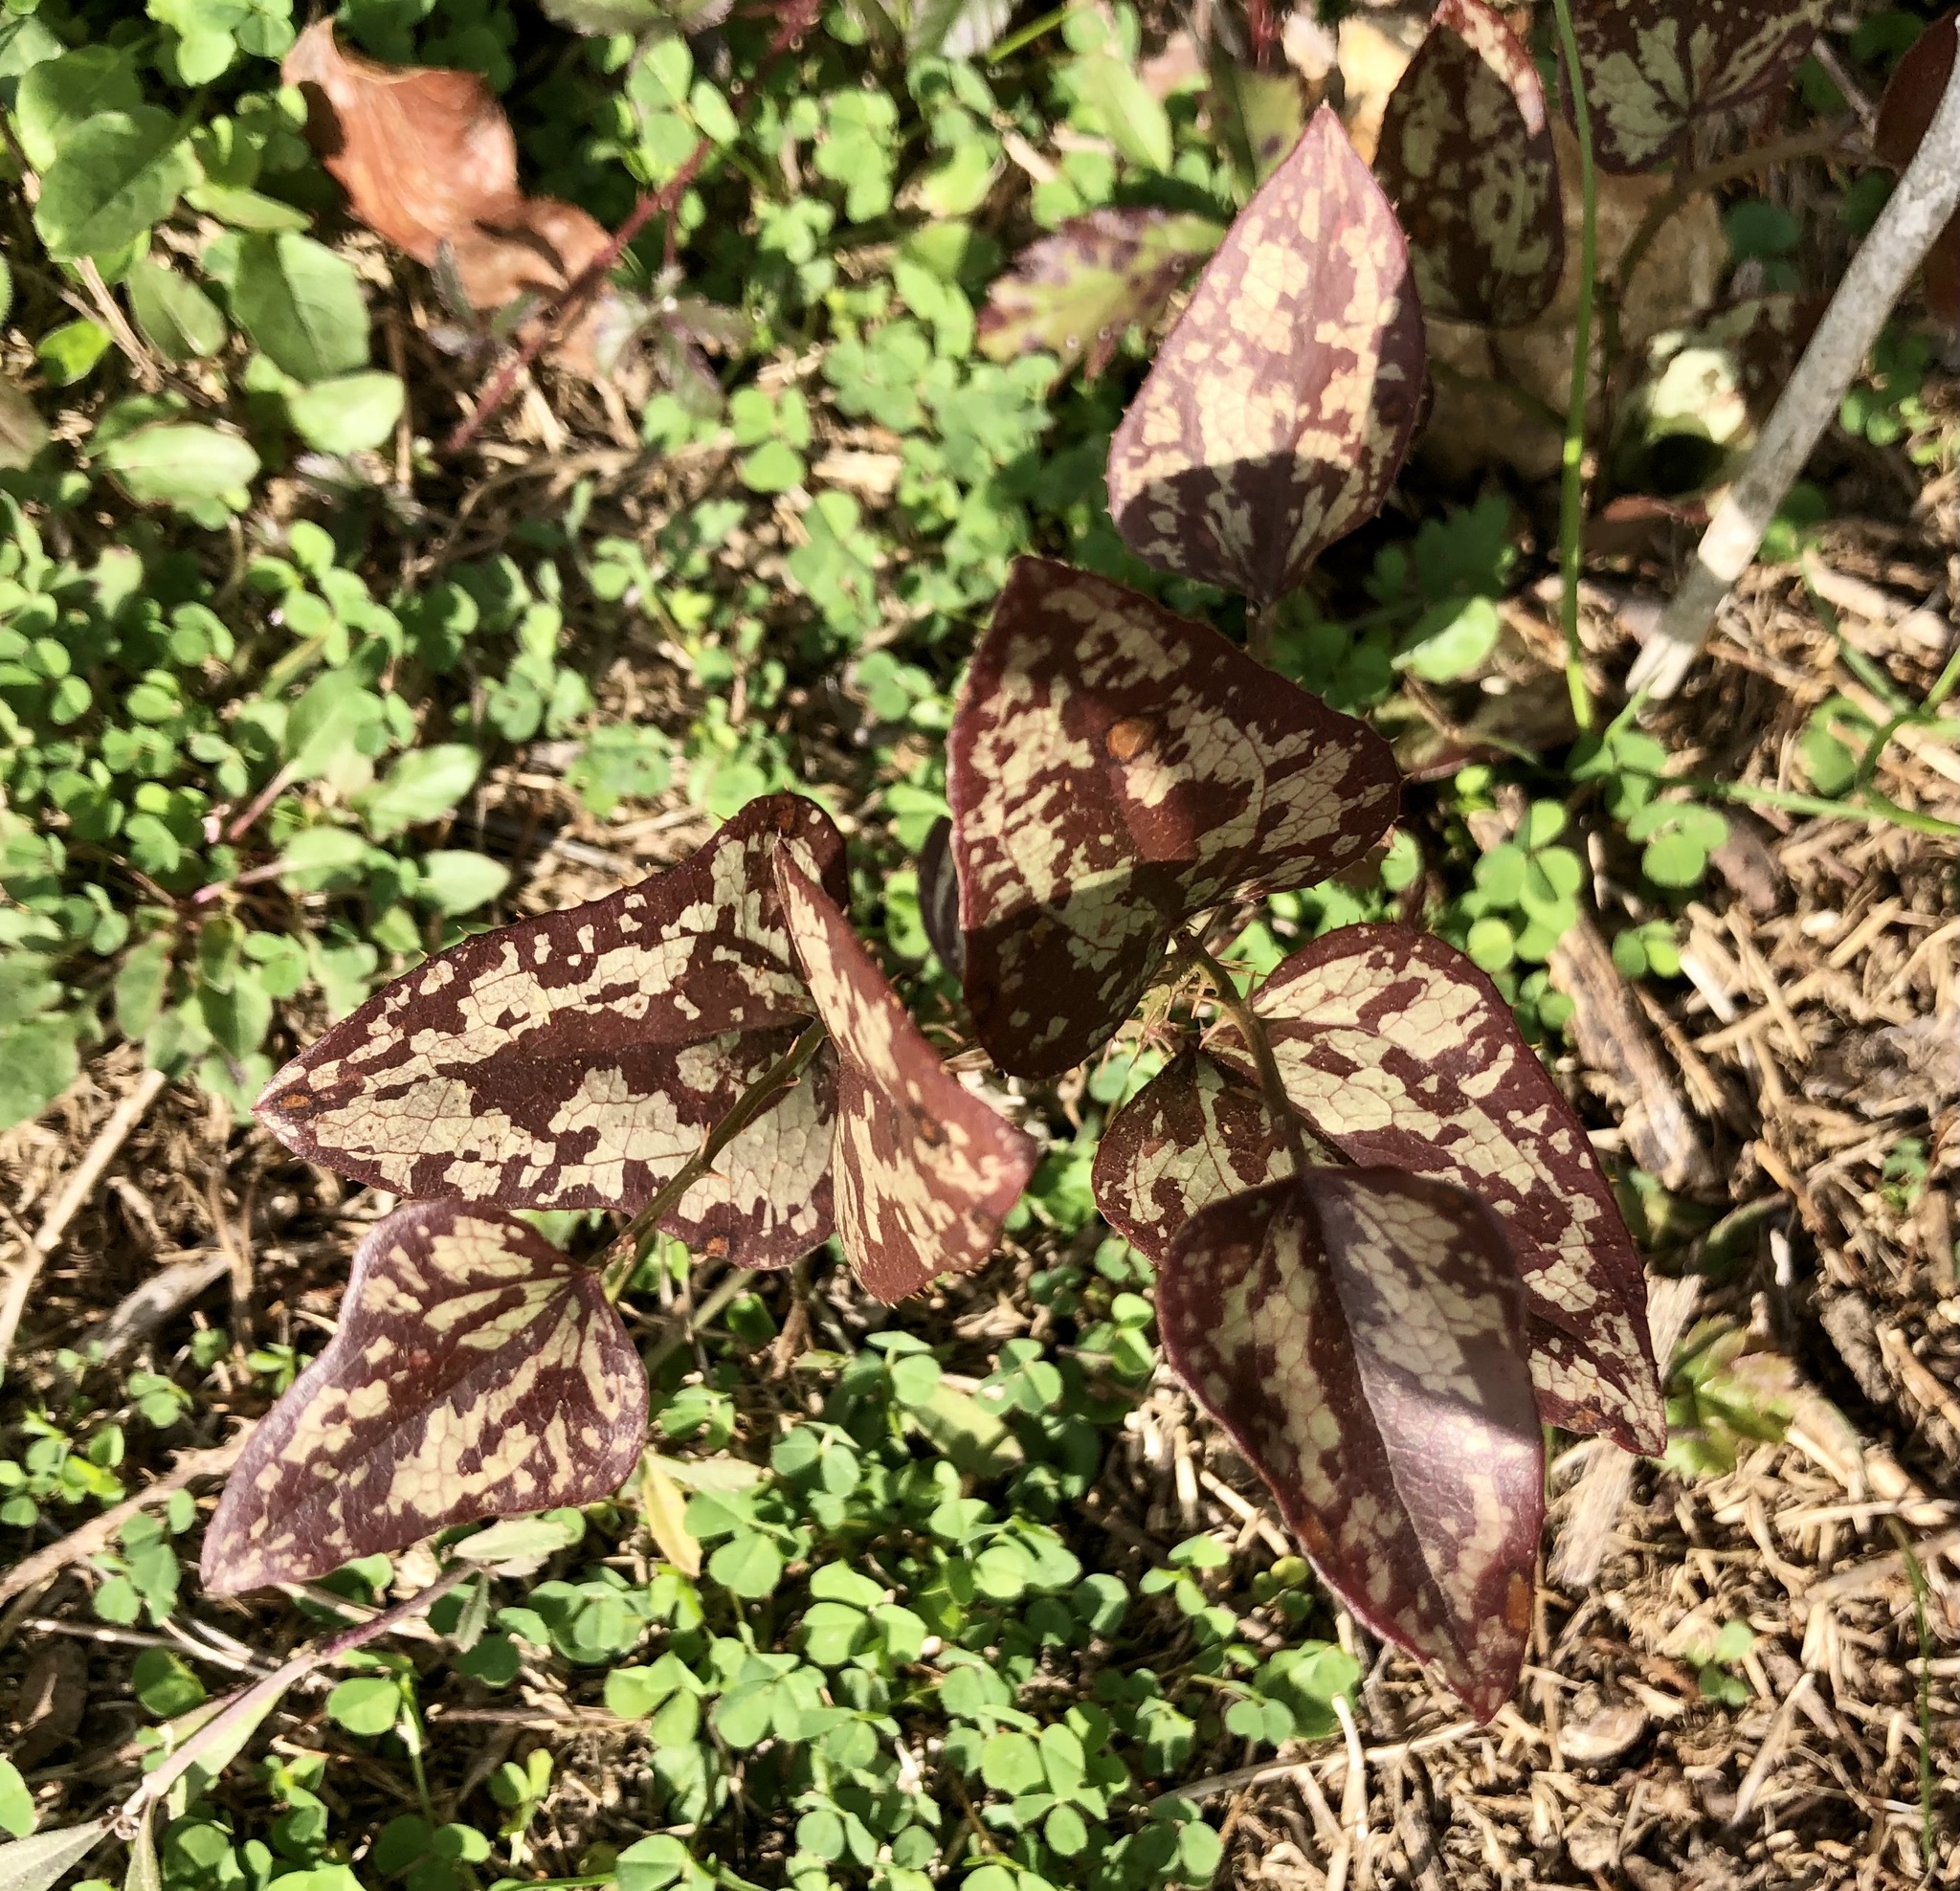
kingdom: Plantae
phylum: Tracheophyta
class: Liliopsida
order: Liliales
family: Smilacaceae
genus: Smilax
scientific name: Smilax bona-nox
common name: Catbrier
